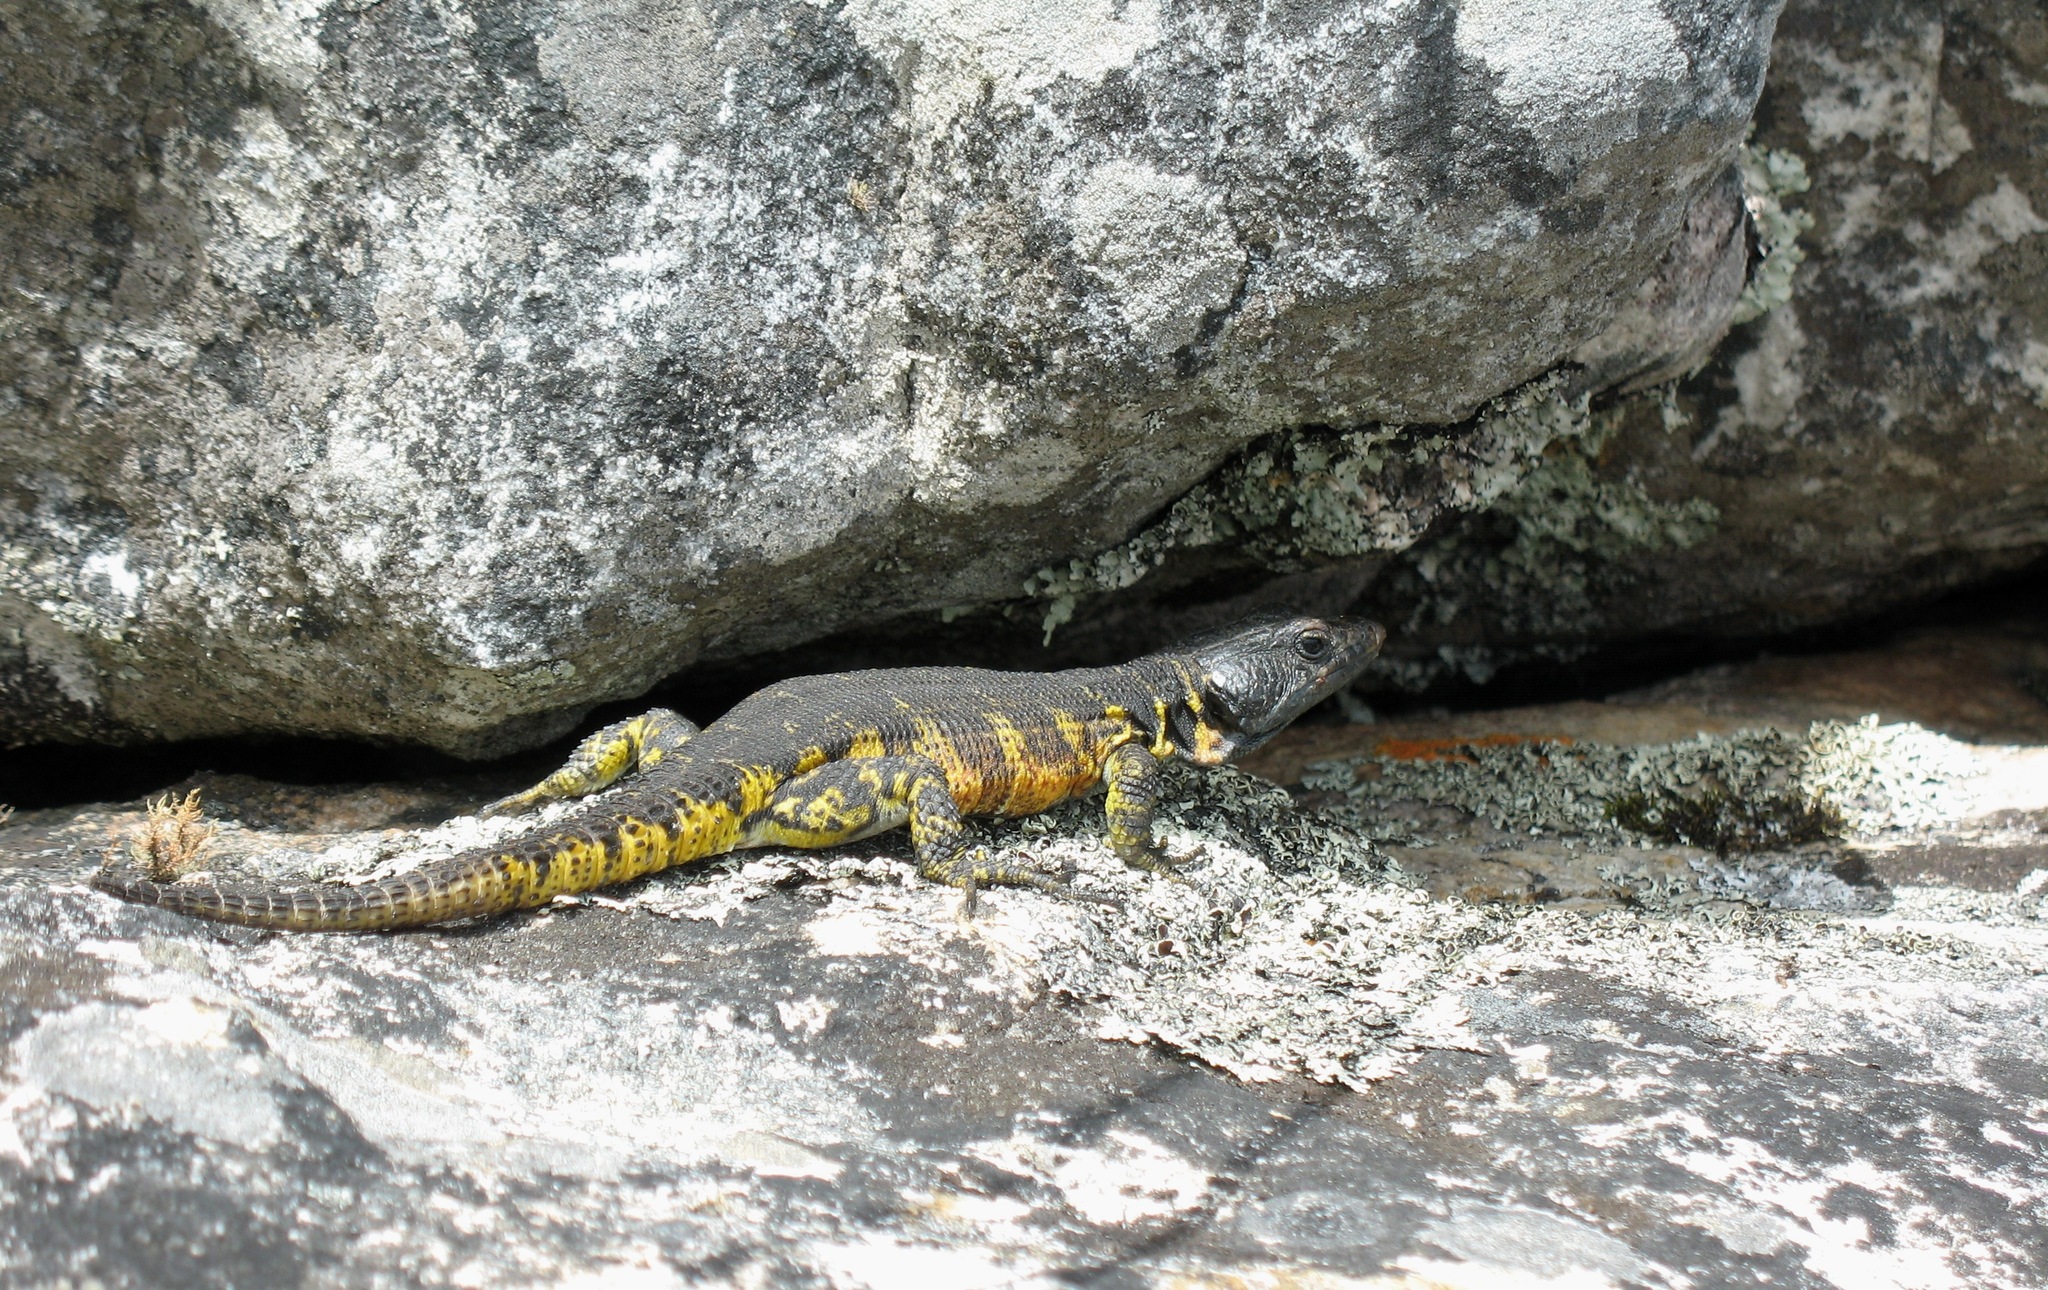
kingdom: Animalia
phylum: Chordata
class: Squamata
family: Cordylidae
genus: Pseudocordylus
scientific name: Pseudocordylus microlepidotus
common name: Cape crag lizard
